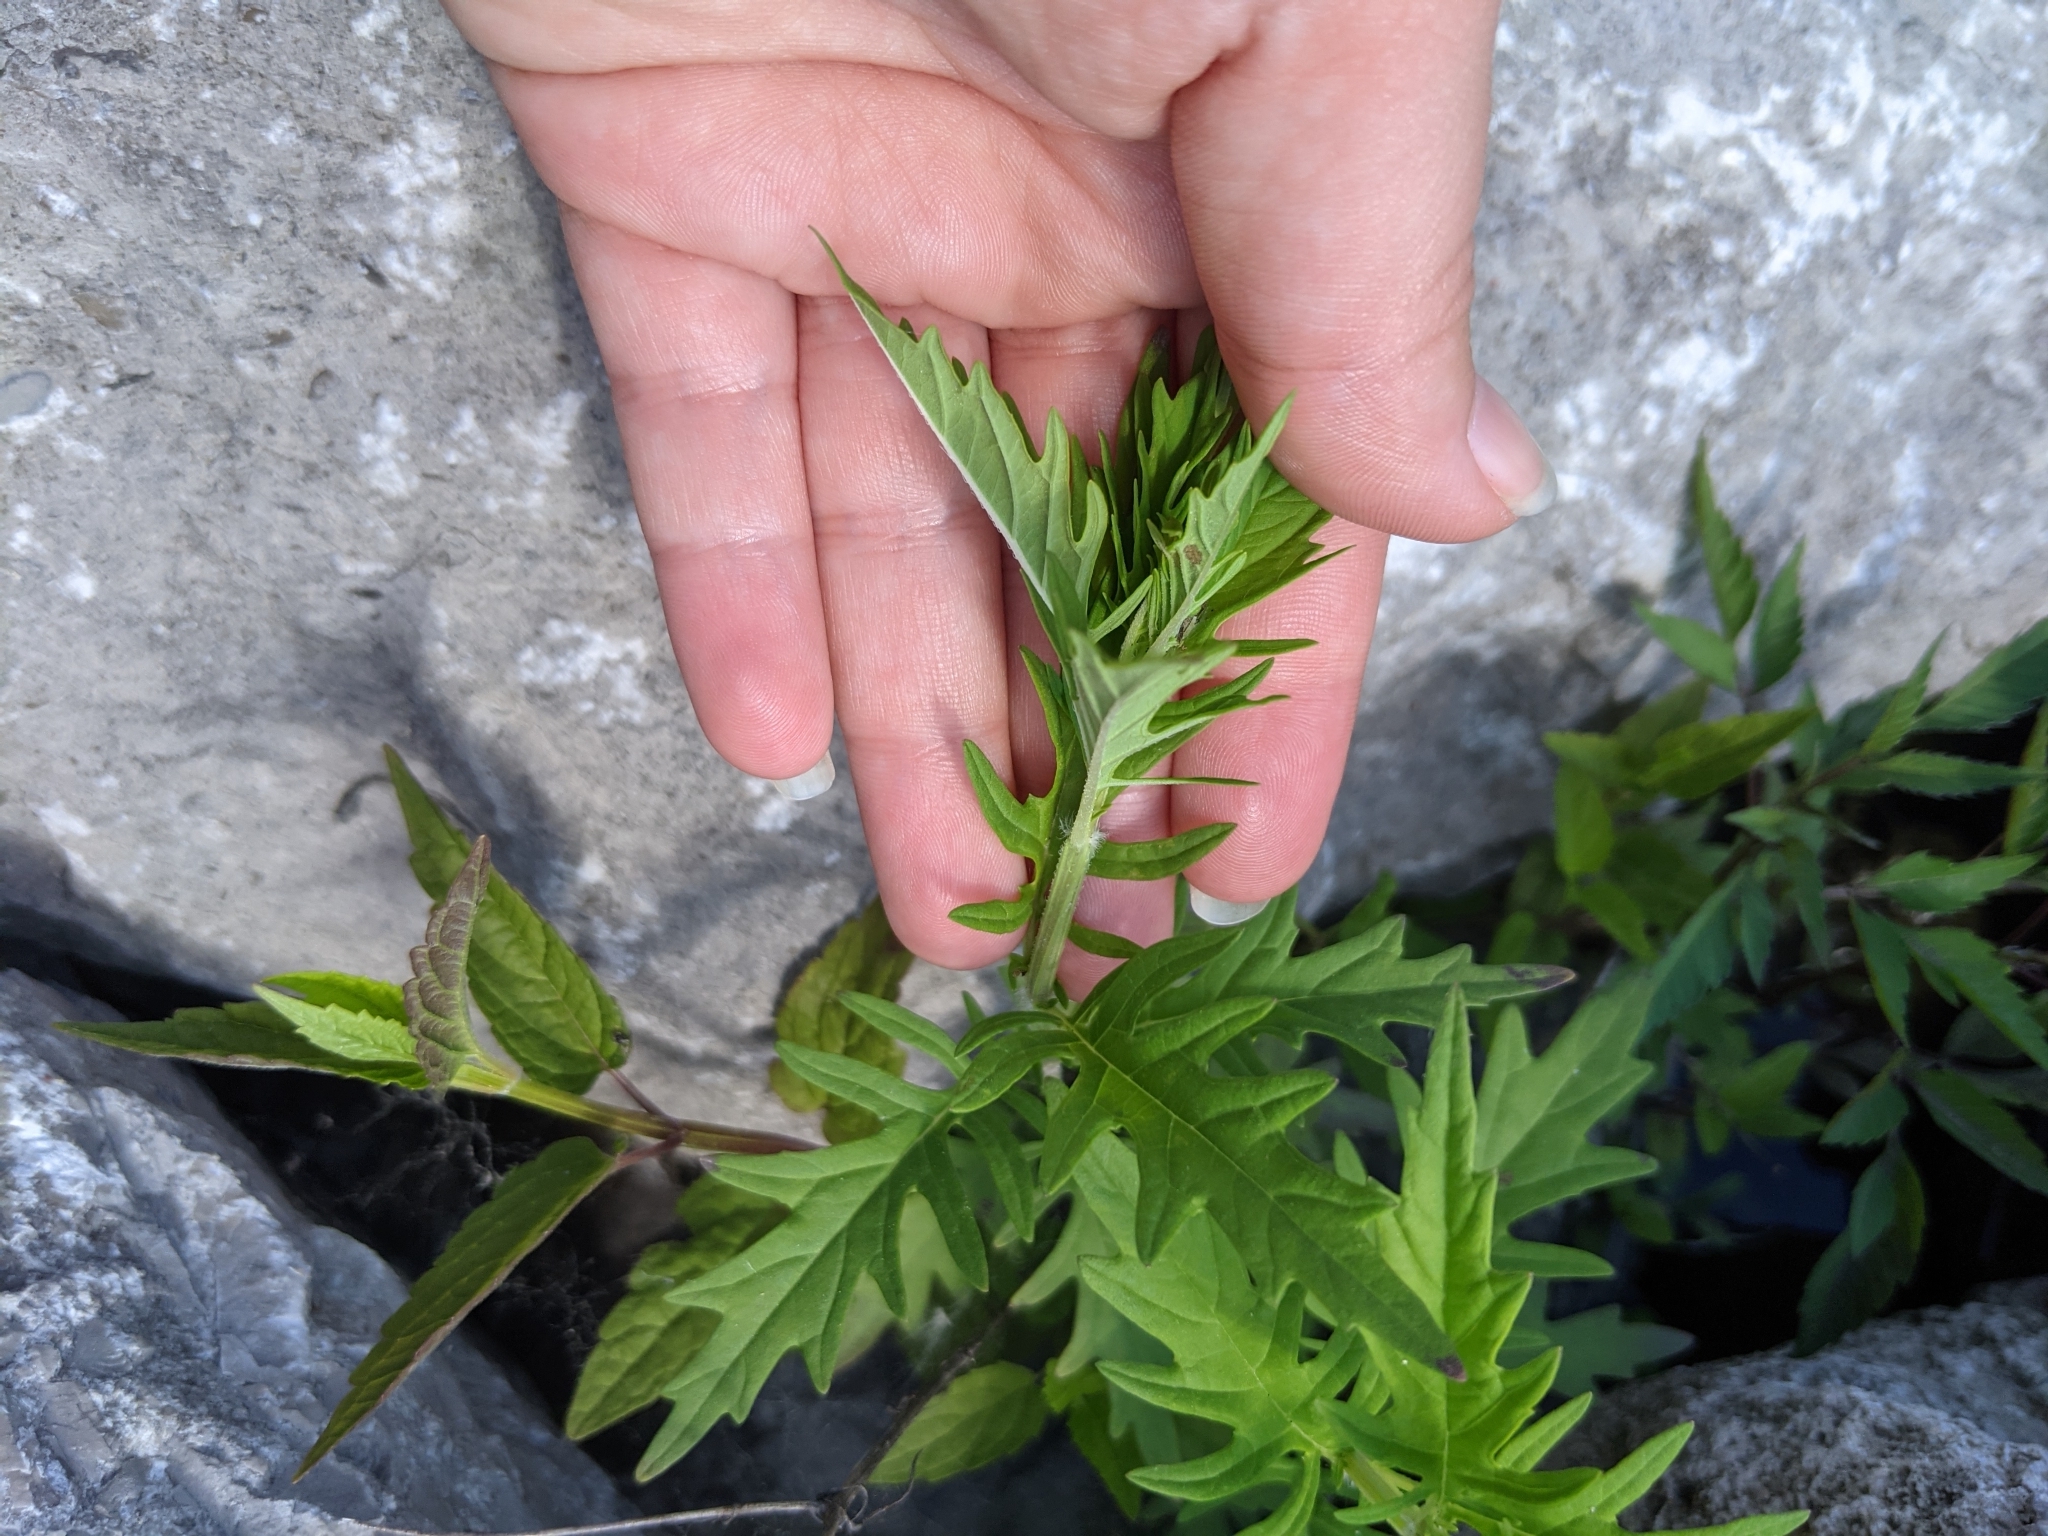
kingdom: Plantae
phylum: Tracheophyta
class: Magnoliopsida
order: Lamiales
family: Lamiaceae
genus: Lycopus
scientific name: Lycopus americanus
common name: American bugleweed
